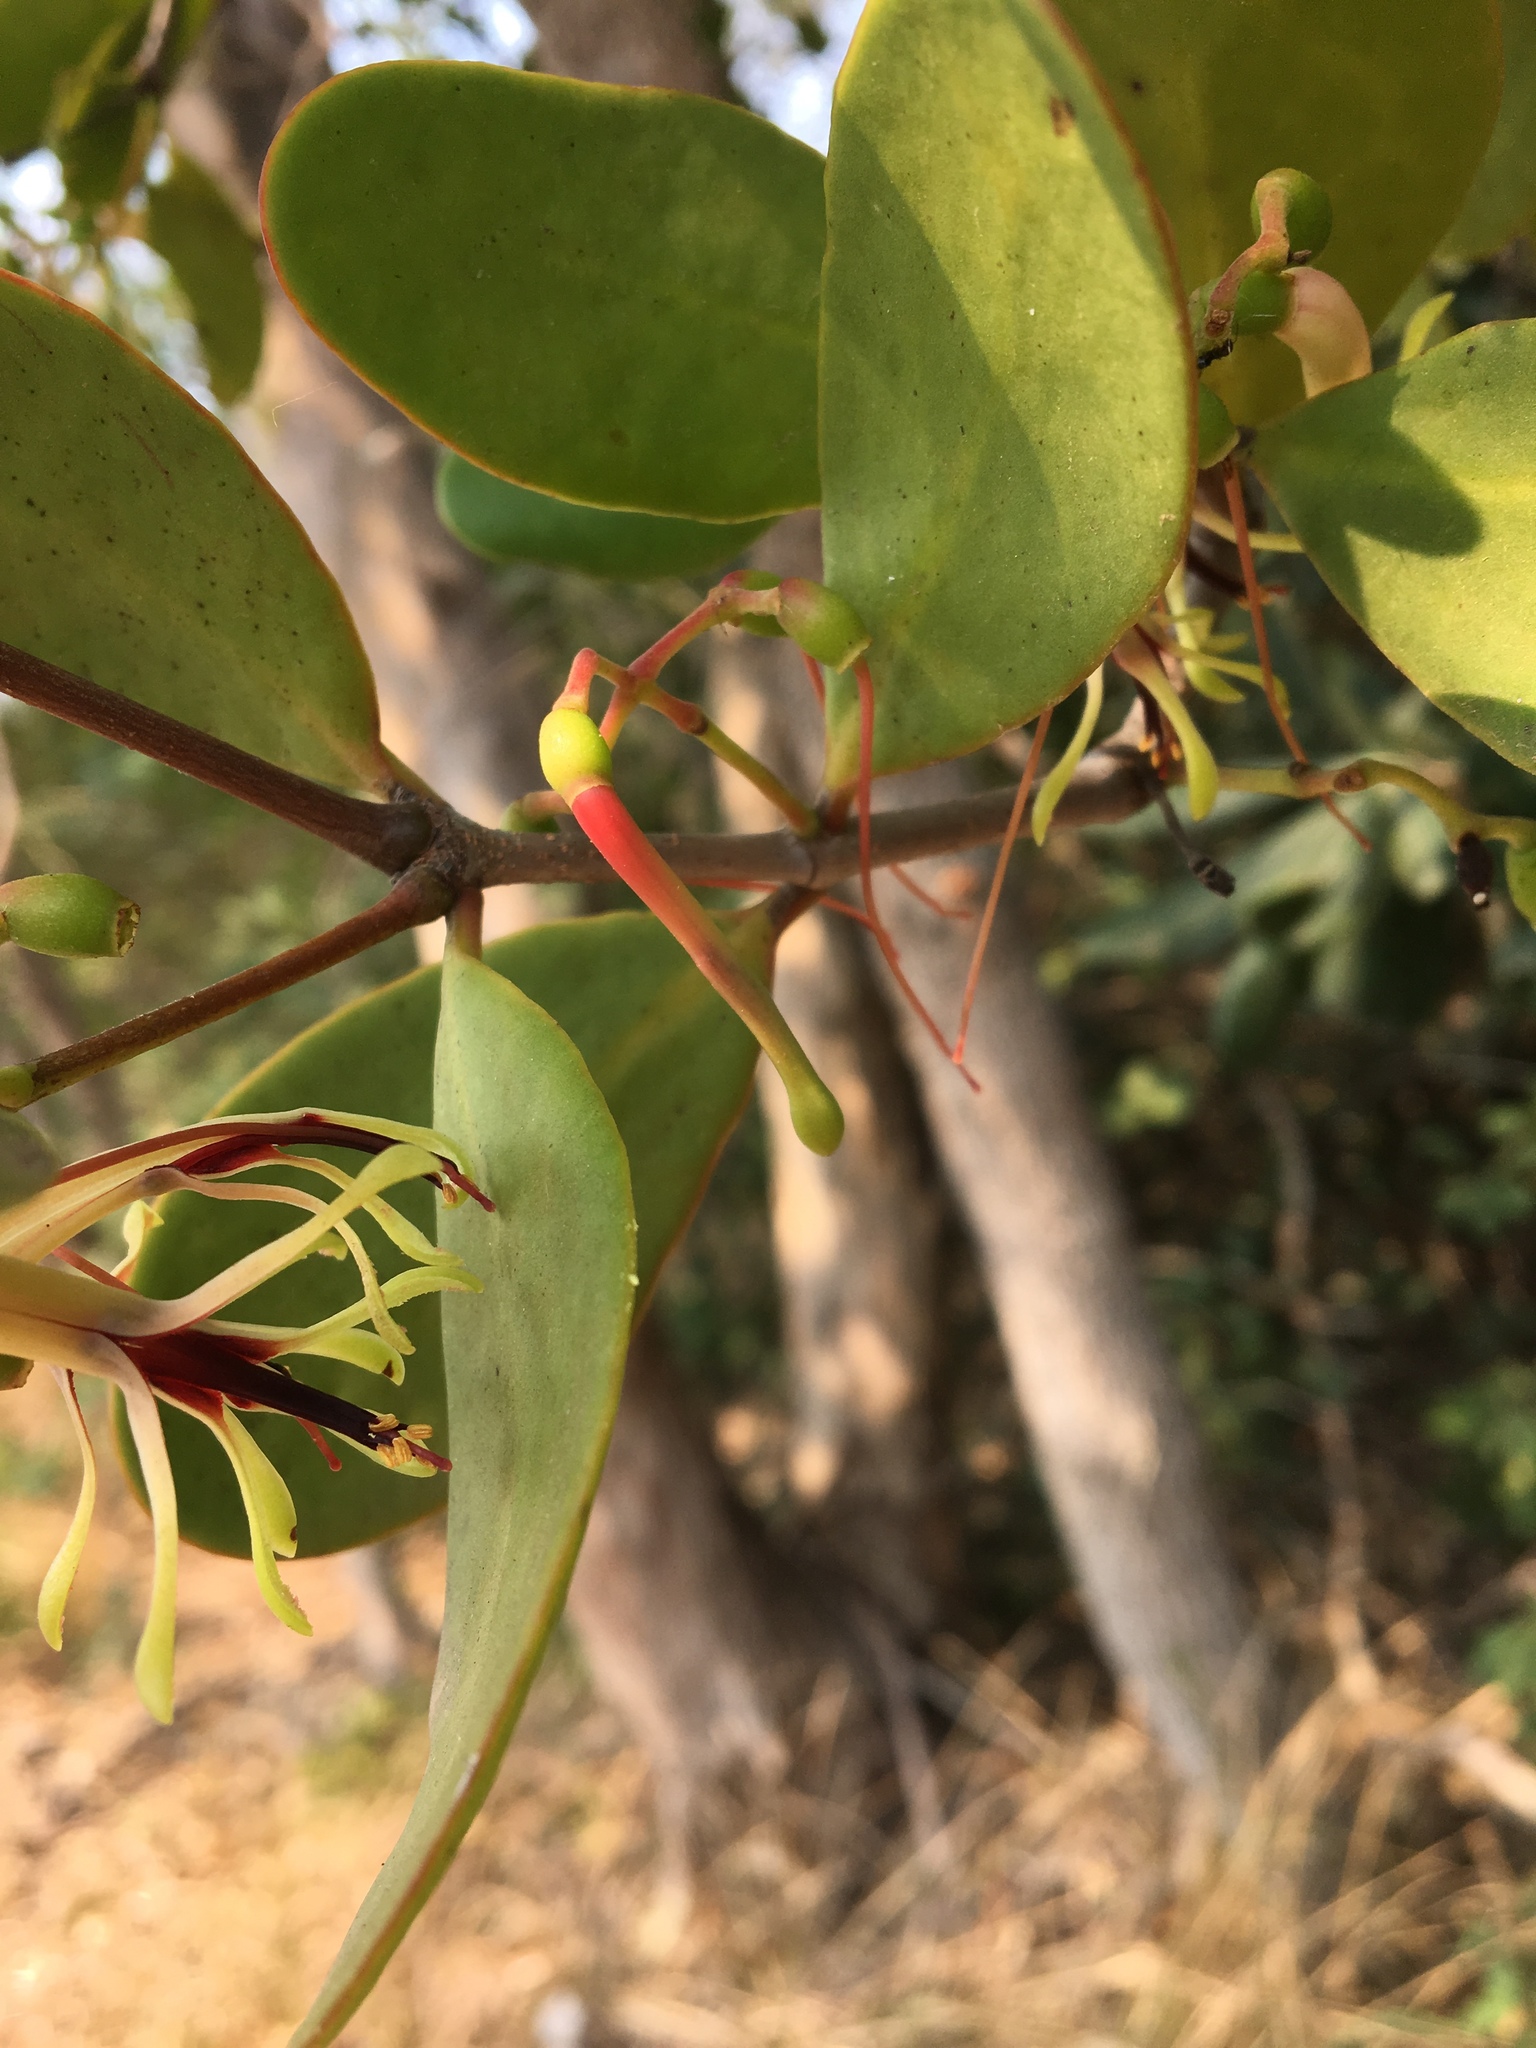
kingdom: Plantae
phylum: Tracheophyta
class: Magnoliopsida
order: Santalales
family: Loranthaceae
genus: Muellerina
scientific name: Muellerina celastroides
